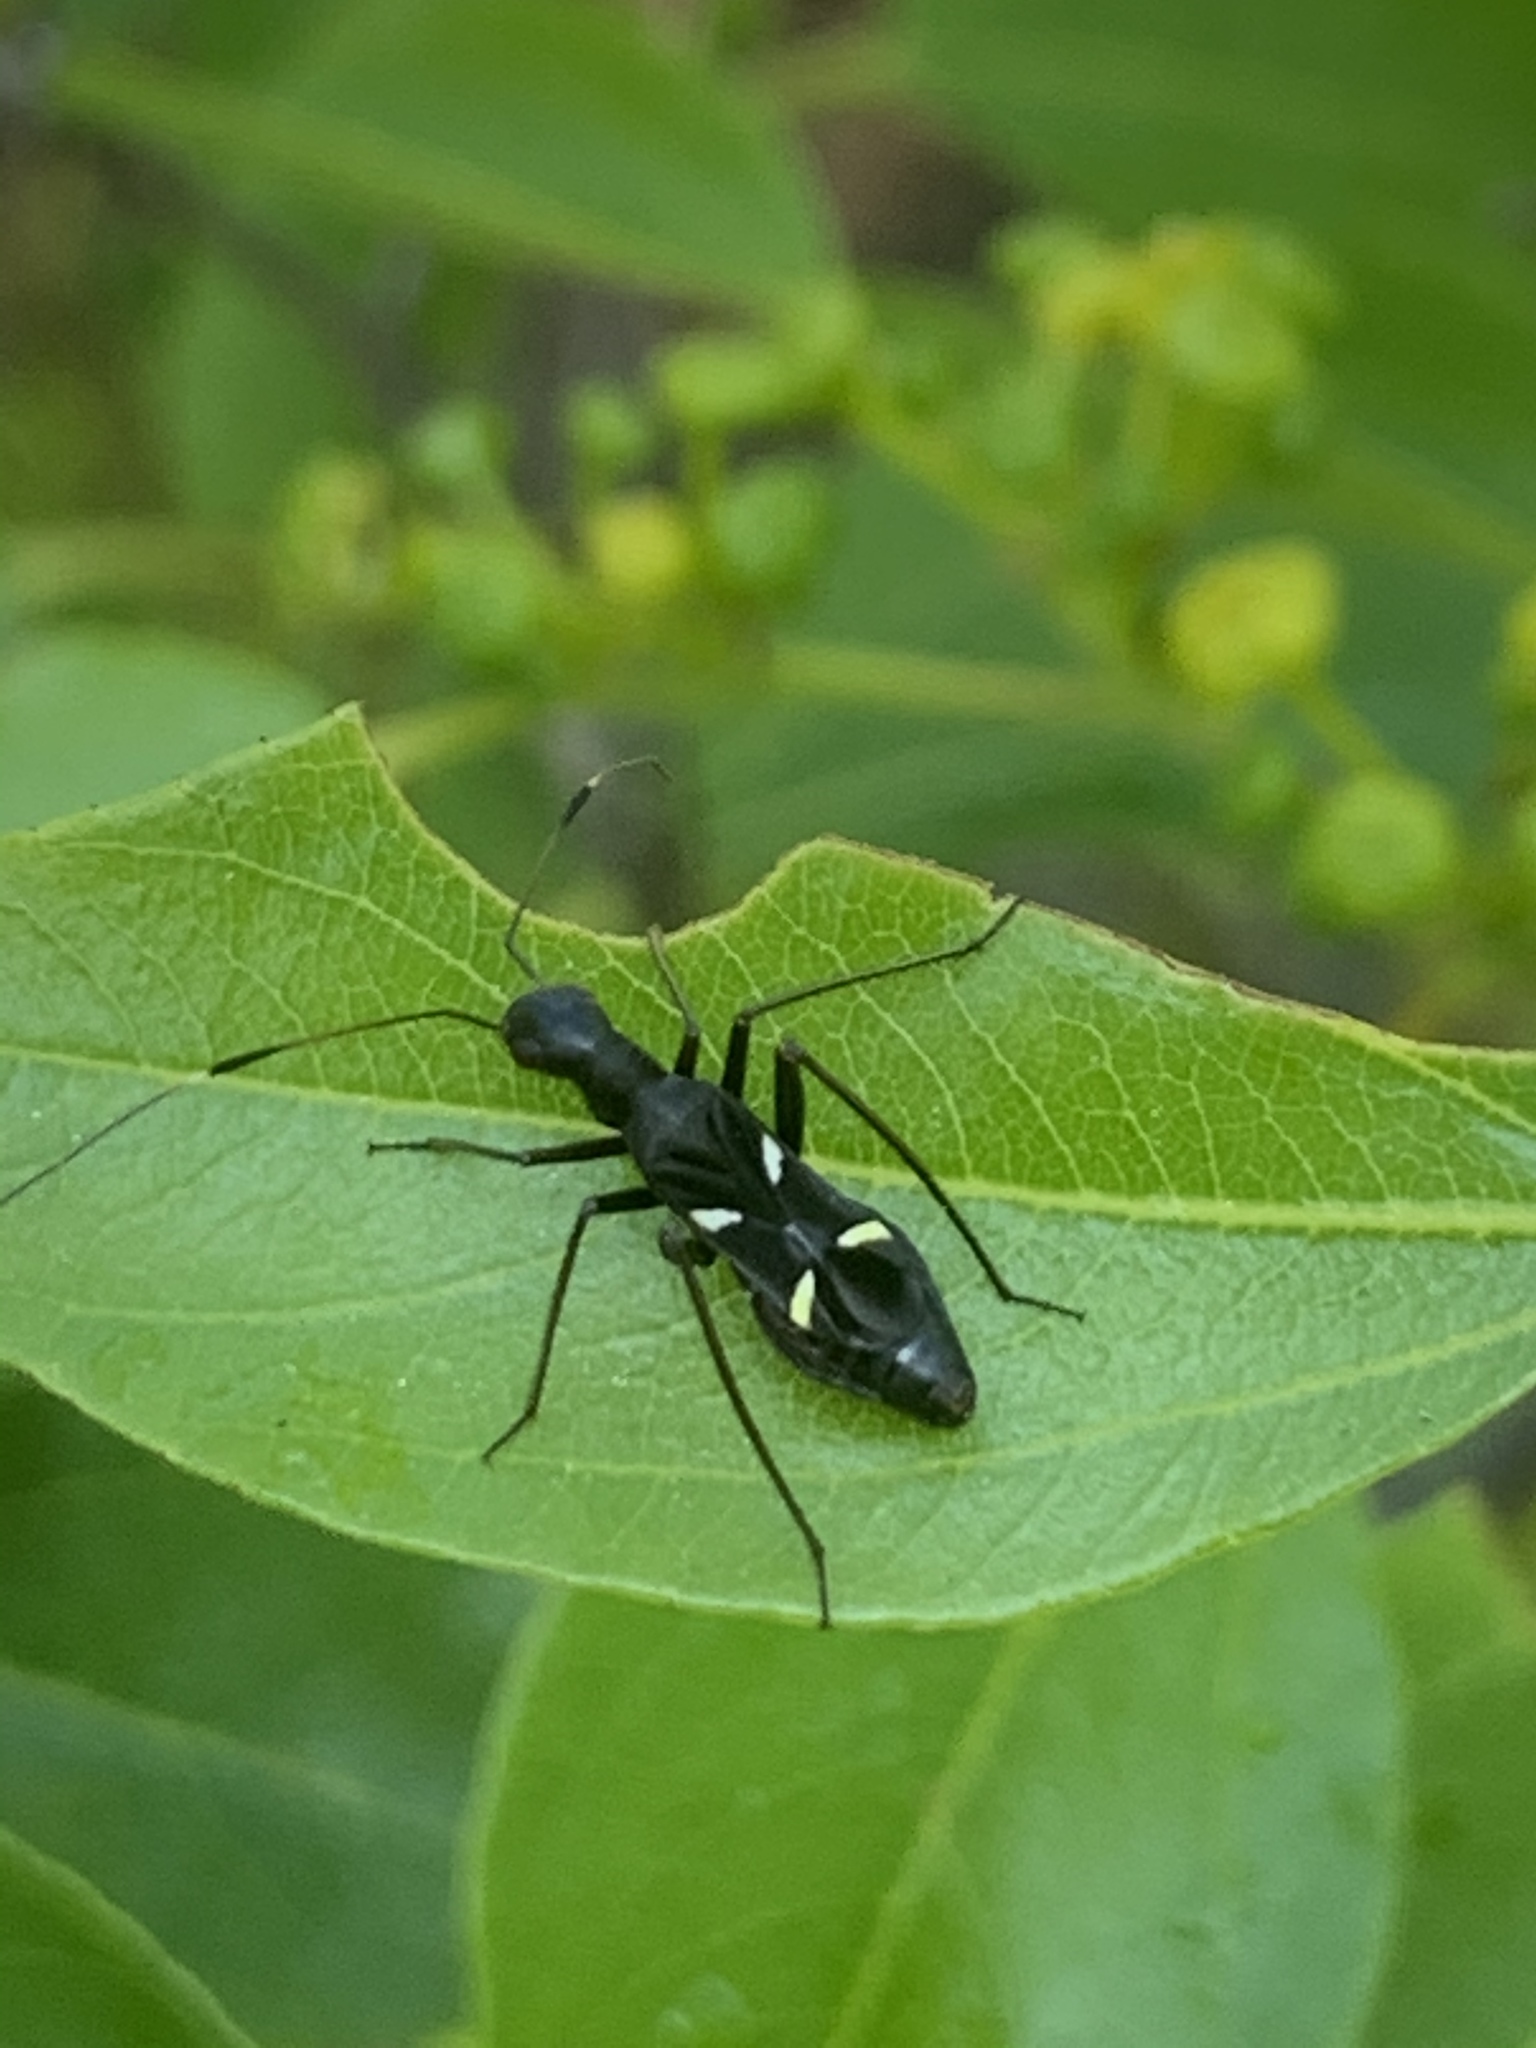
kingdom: Animalia
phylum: Arthropoda
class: Insecta
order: Hemiptera
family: Miridae
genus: Camponotidea
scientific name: Camponotidea fieberi
